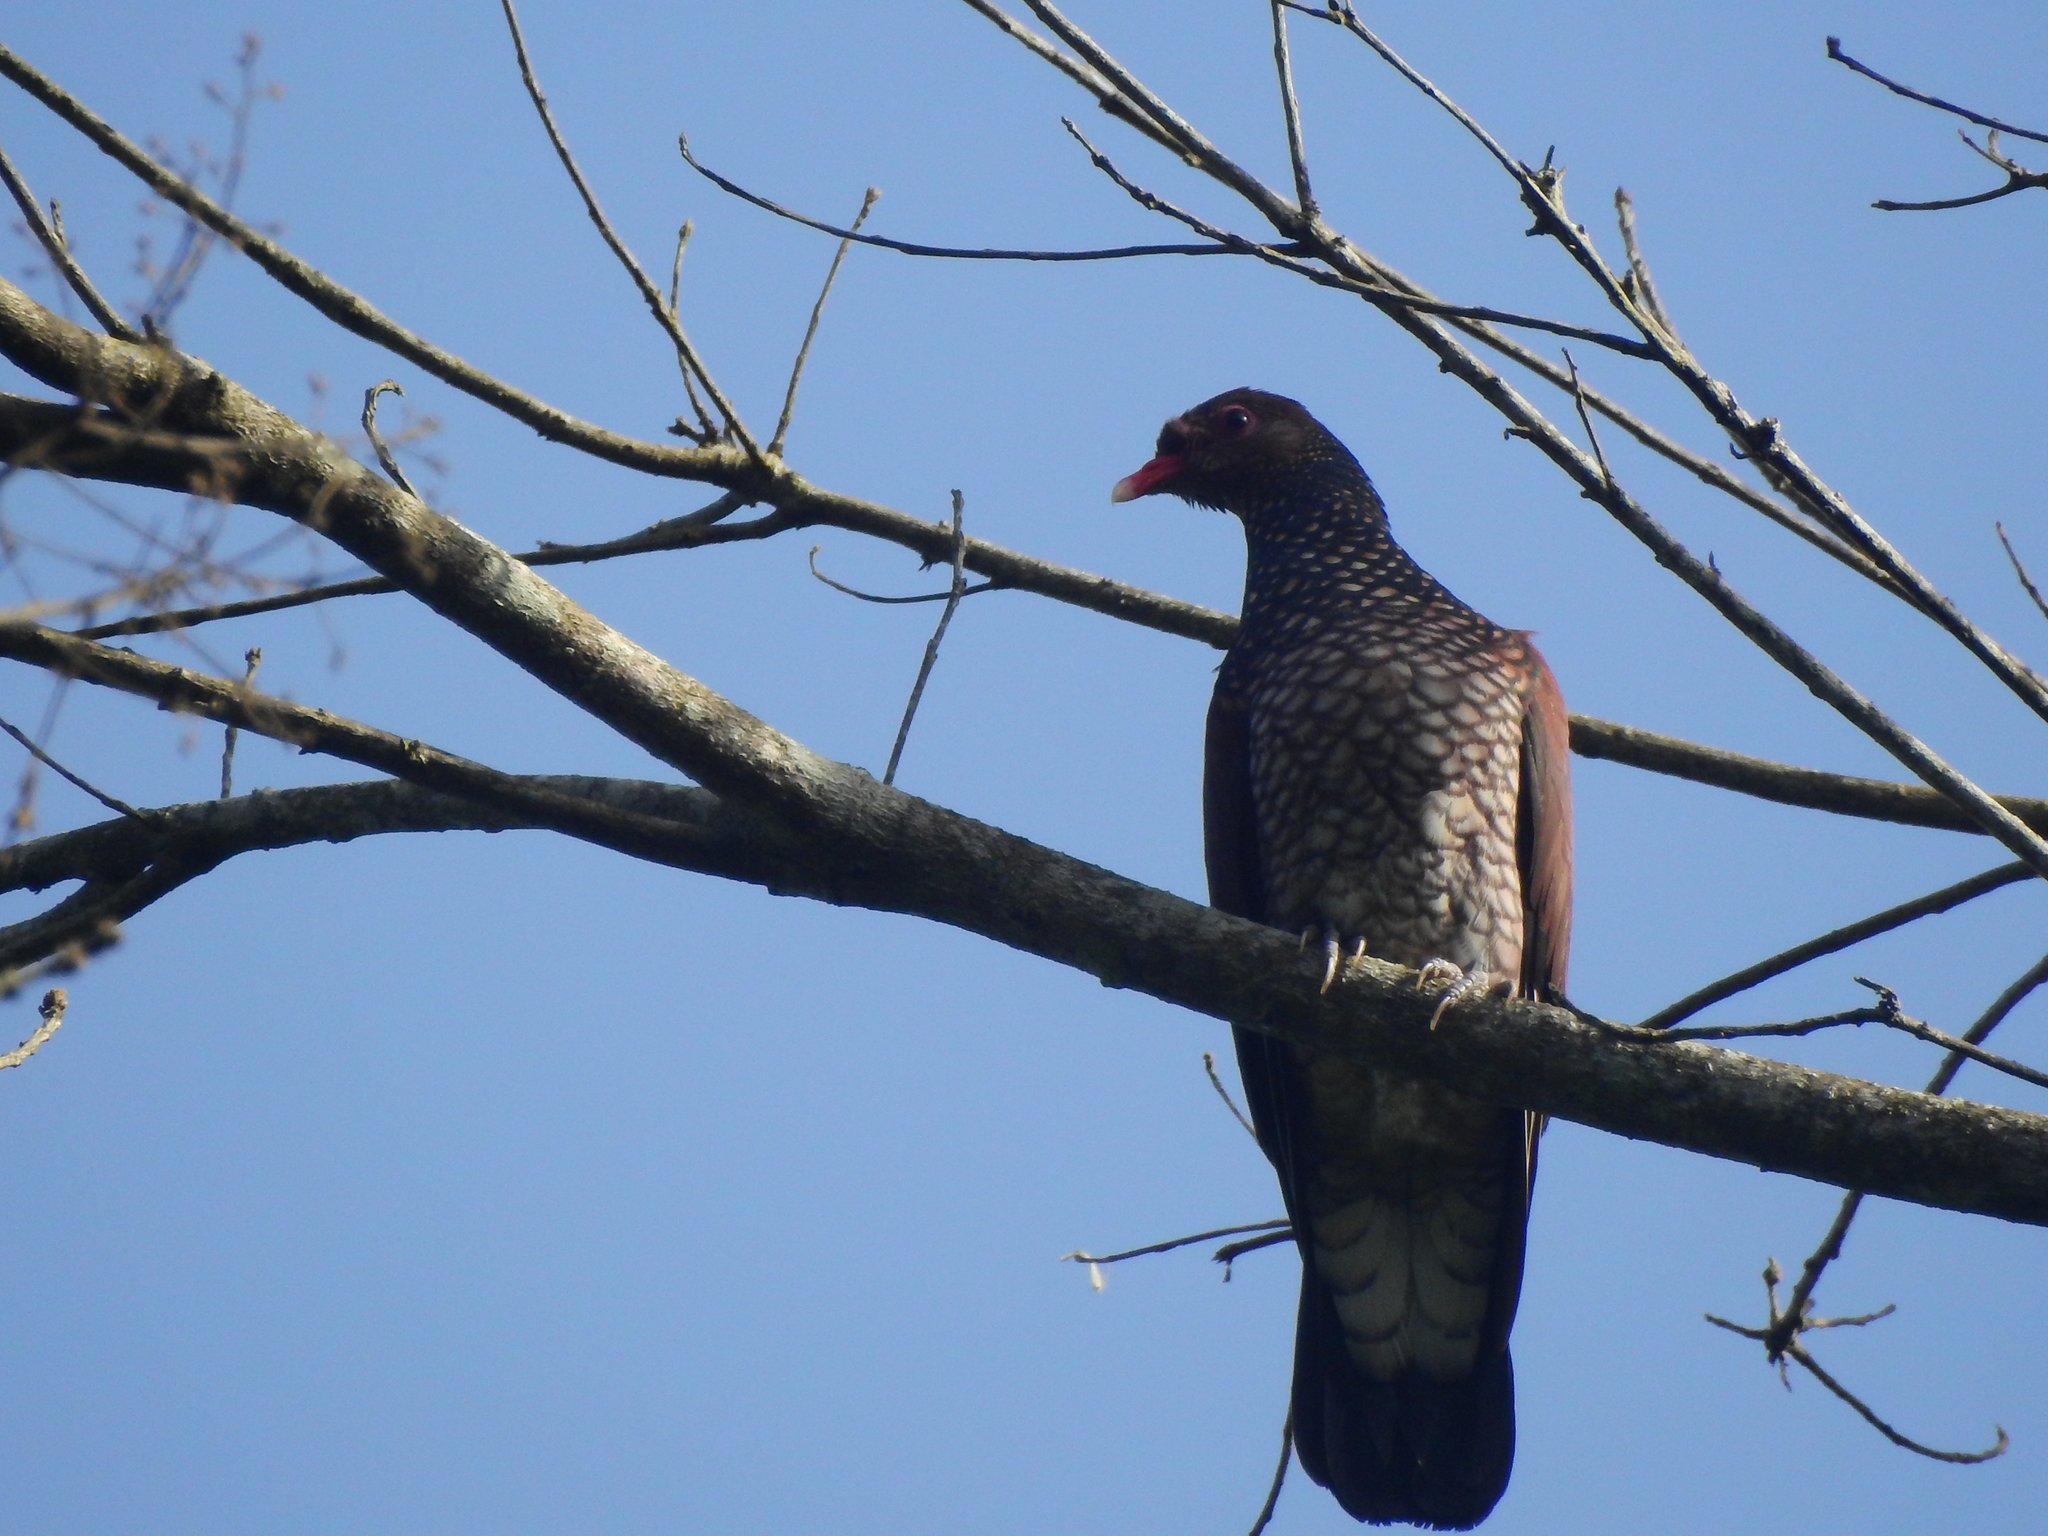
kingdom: Animalia
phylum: Chordata
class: Aves
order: Columbiformes
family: Columbidae
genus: Patagioenas
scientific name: Patagioenas speciosa
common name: Scaled pigeon
